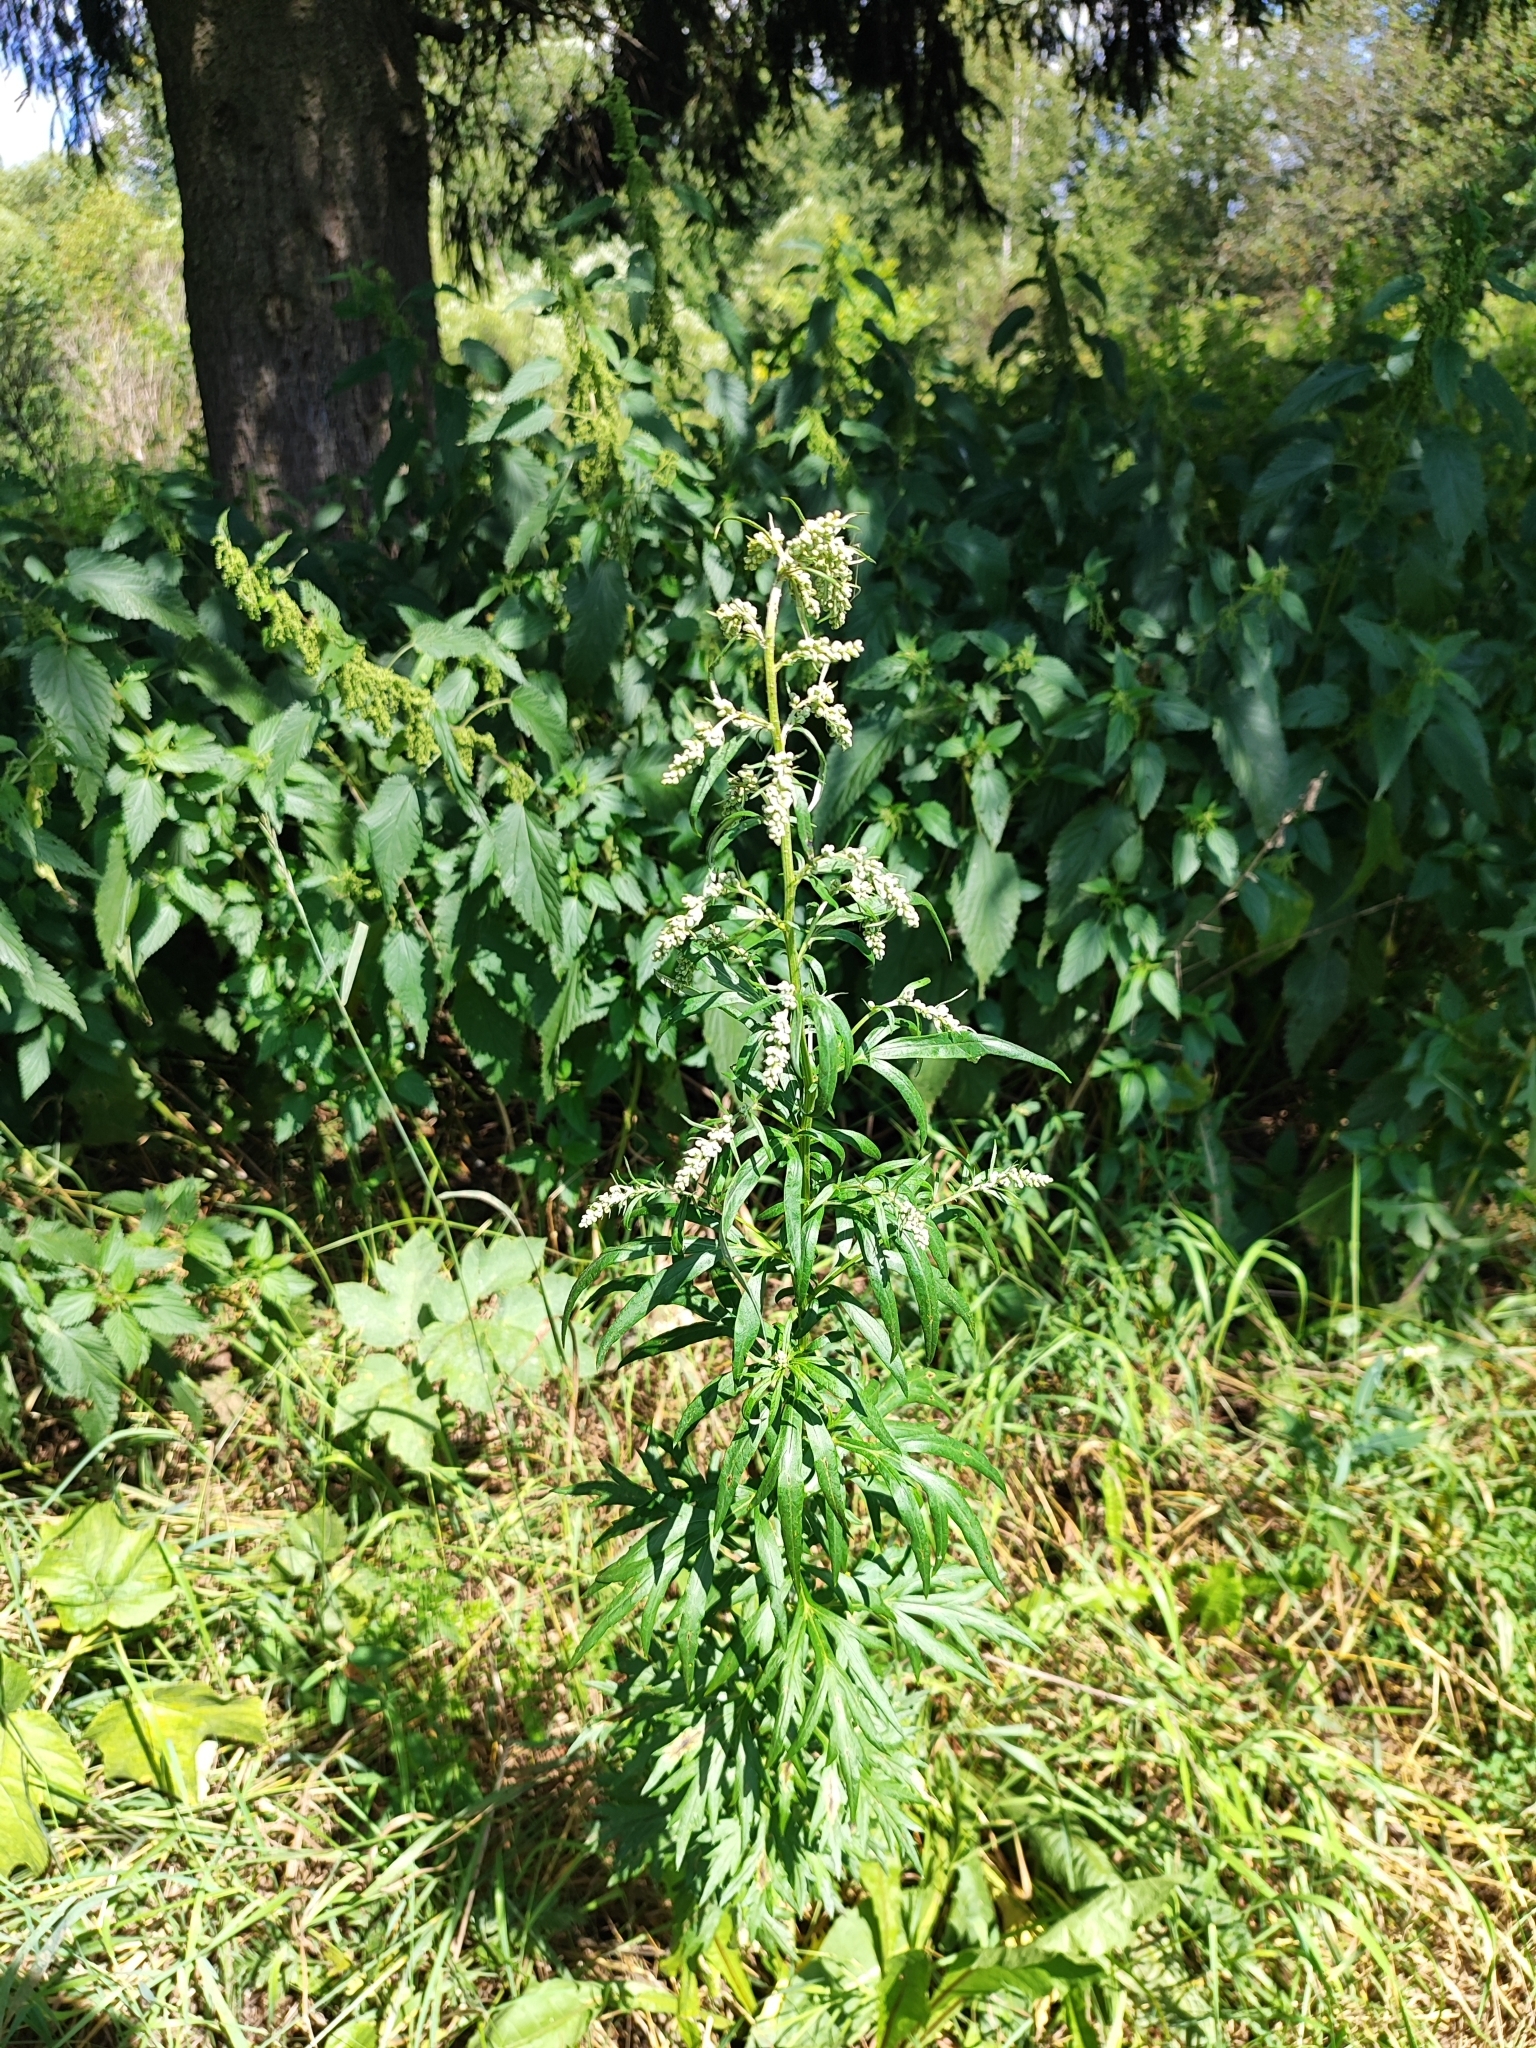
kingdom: Plantae
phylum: Tracheophyta
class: Magnoliopsida
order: Asterales
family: Asteraceae
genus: Artemisia
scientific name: Artemisia vulgaris
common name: Mugwort
